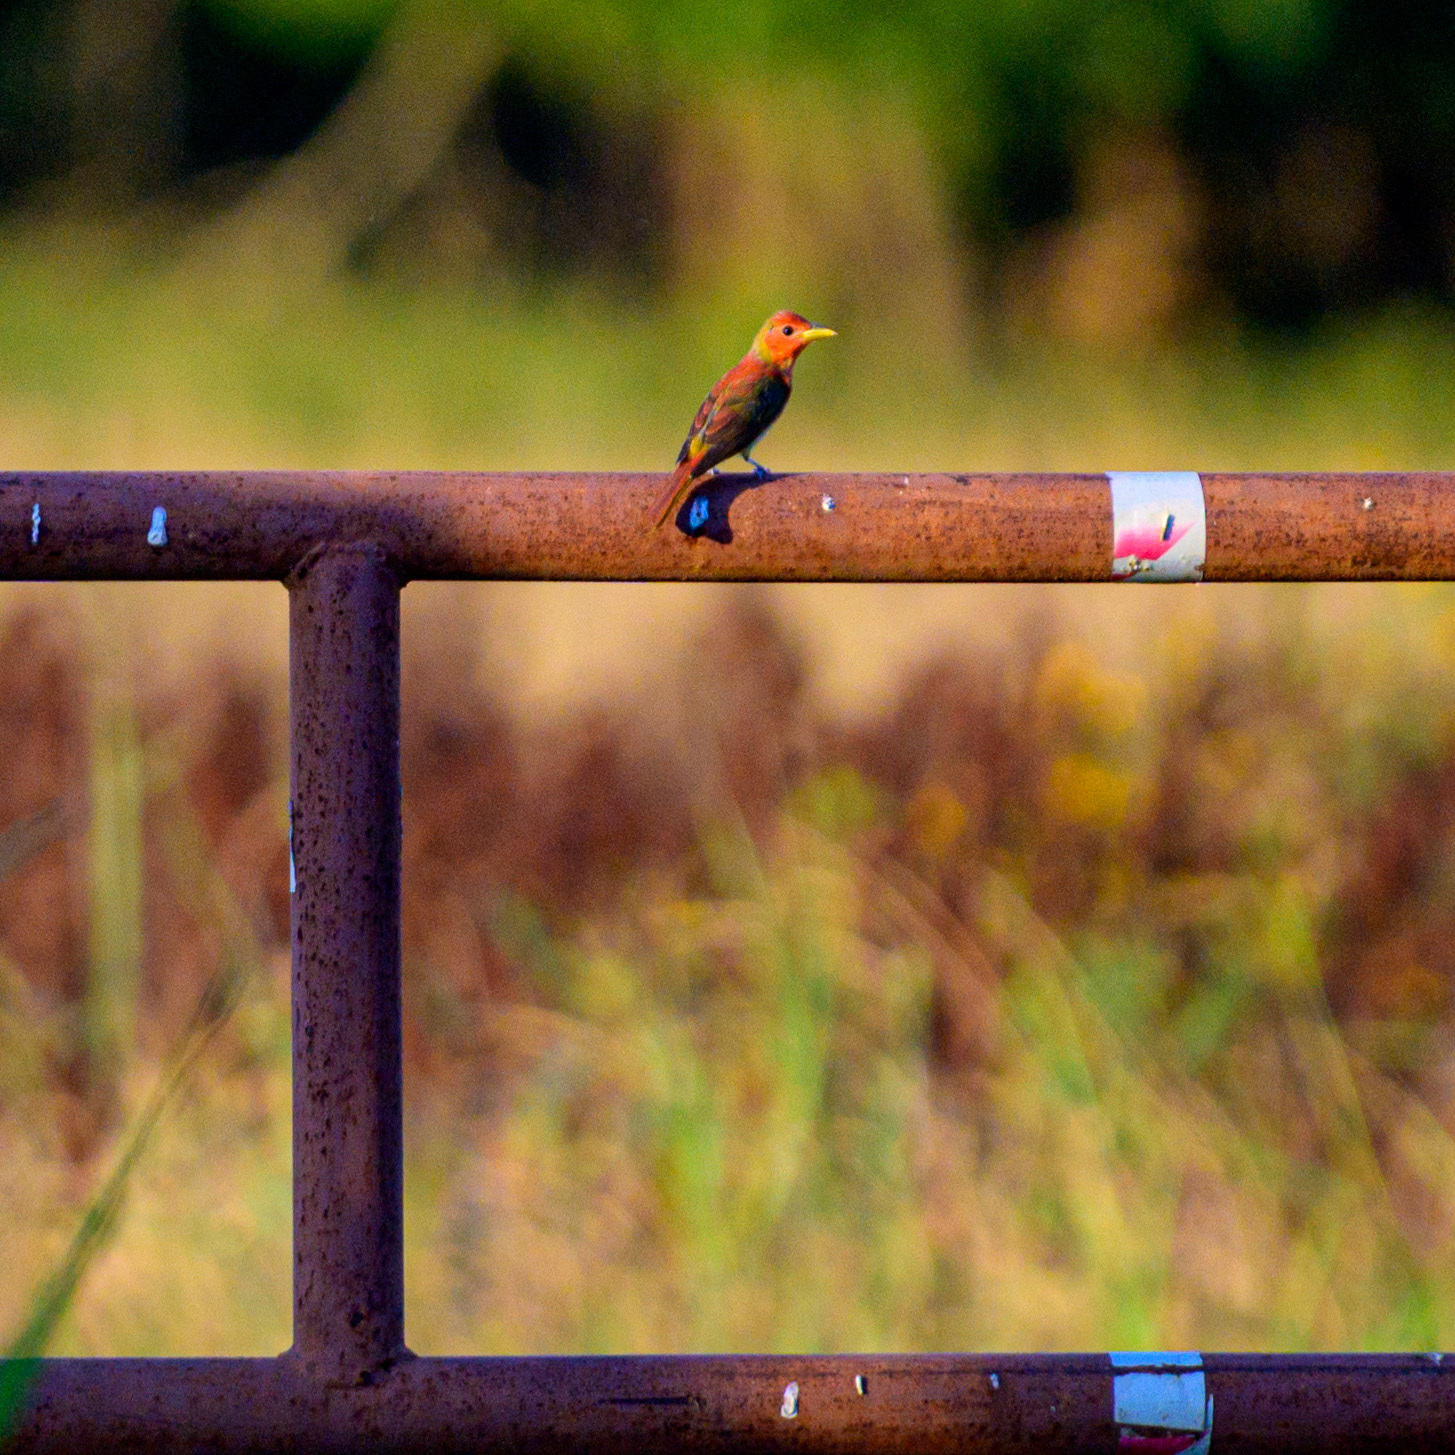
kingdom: Animalia
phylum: Chordata
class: Aves
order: Passeriformes
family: Cardinalidae
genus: Piranga
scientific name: Piranga rubra
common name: Summer tanager
